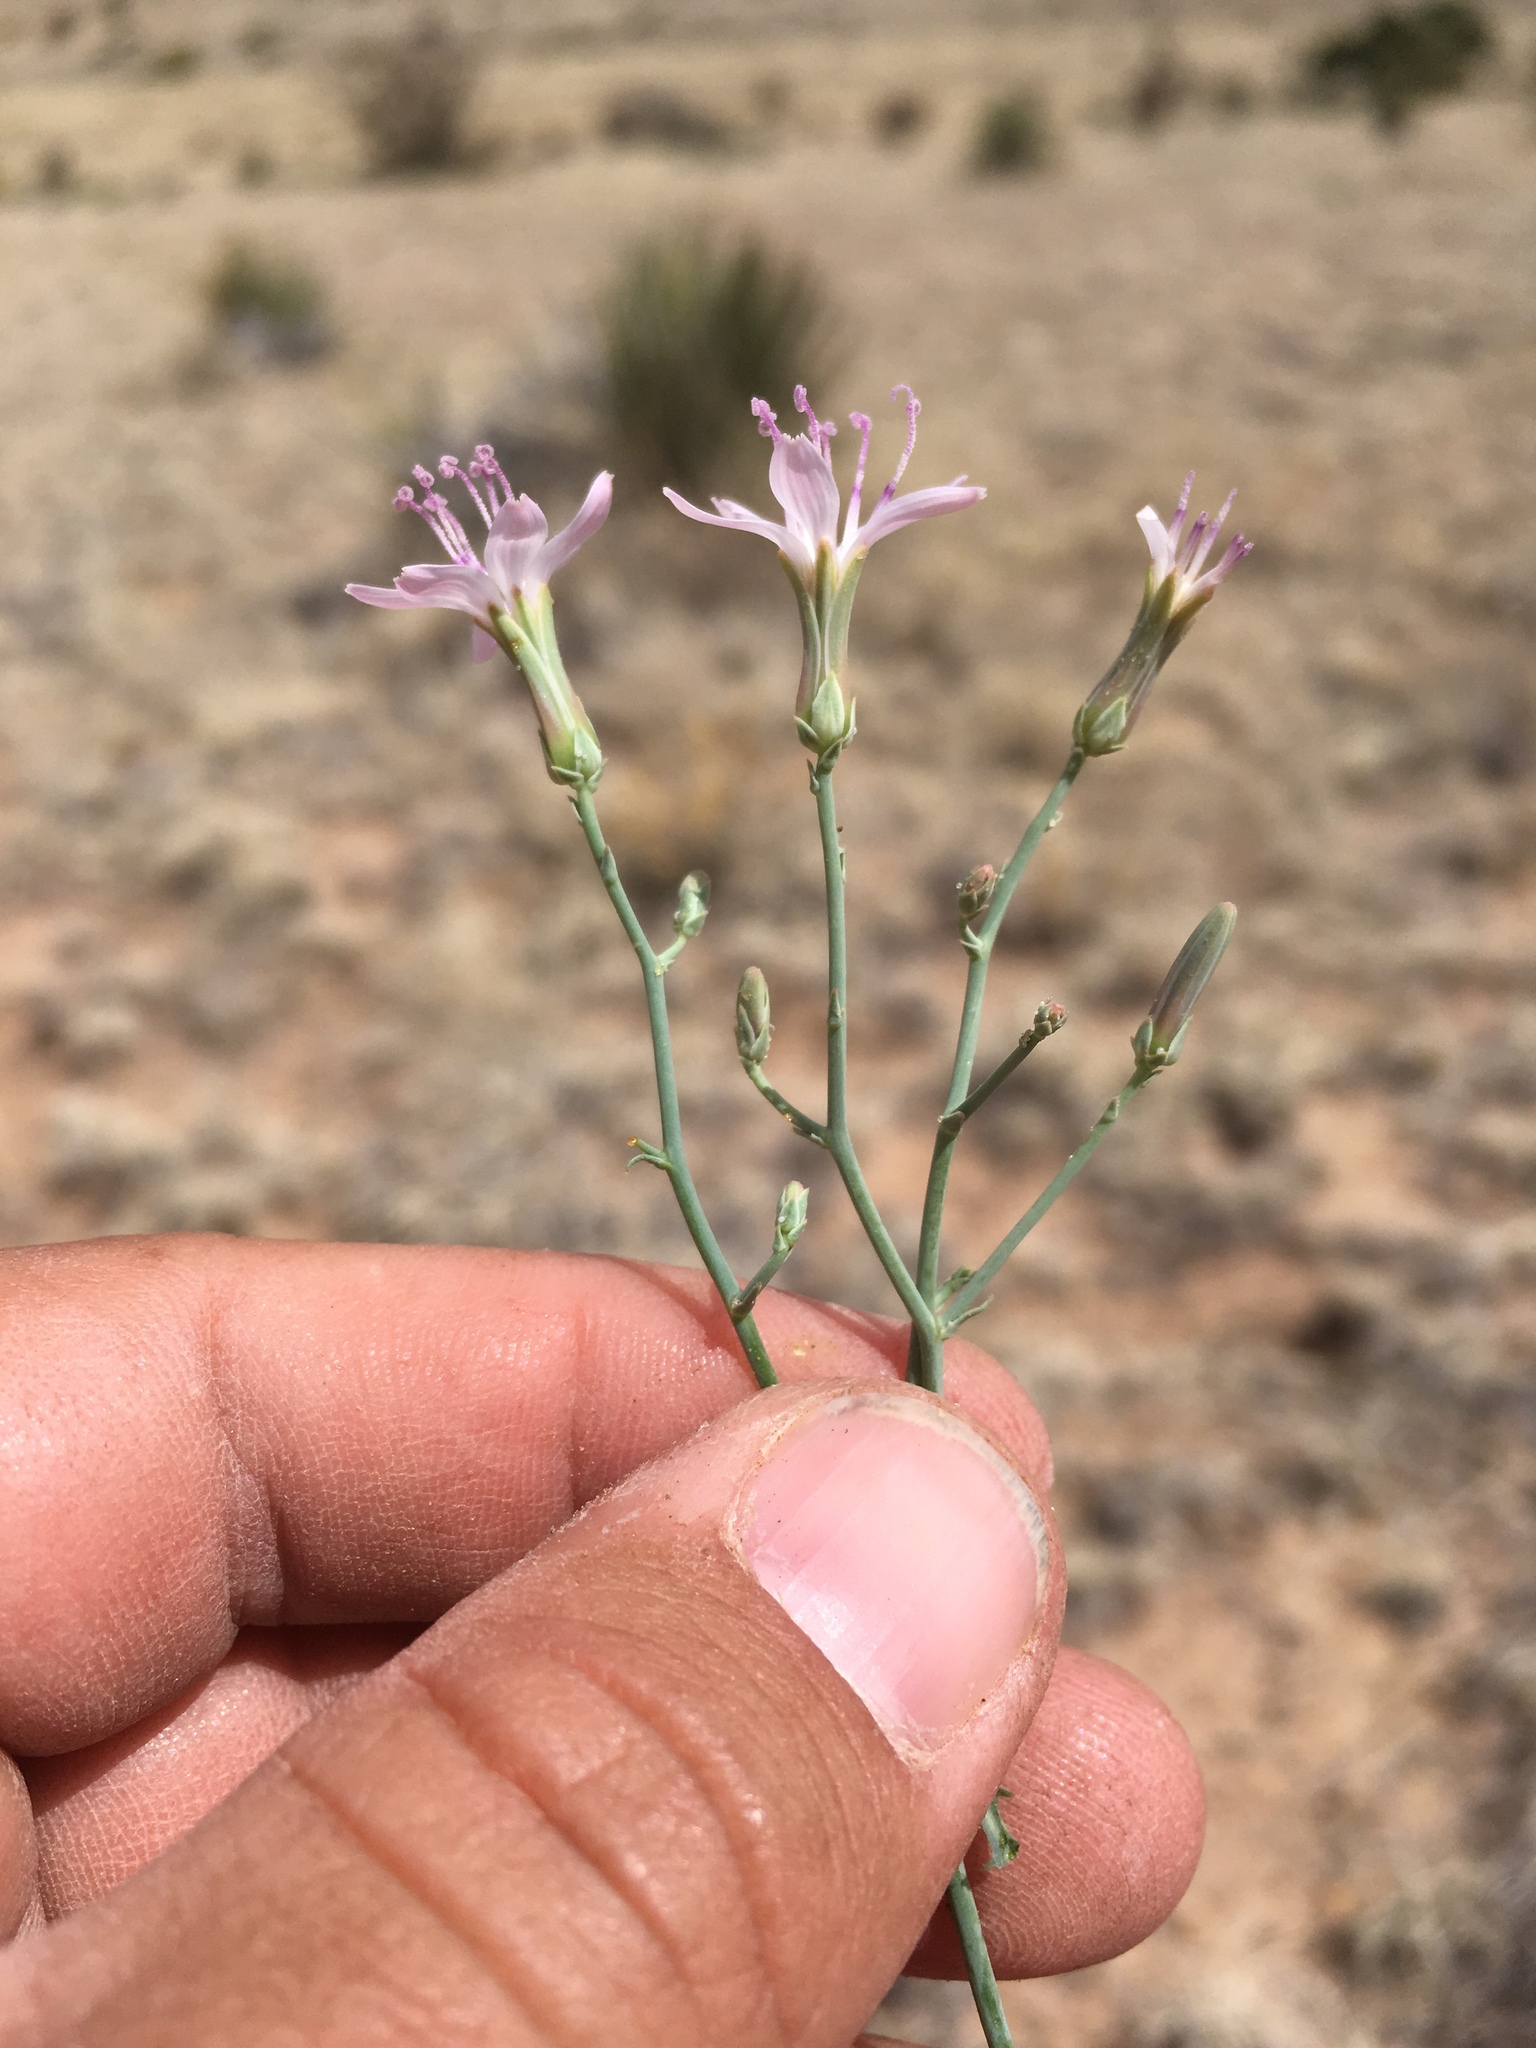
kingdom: Plantae
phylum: Tracheophyta
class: Magnoliopsida
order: Asterales
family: Asteraceae
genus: Stephanomeria
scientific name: Stephanomeria pauciflora
